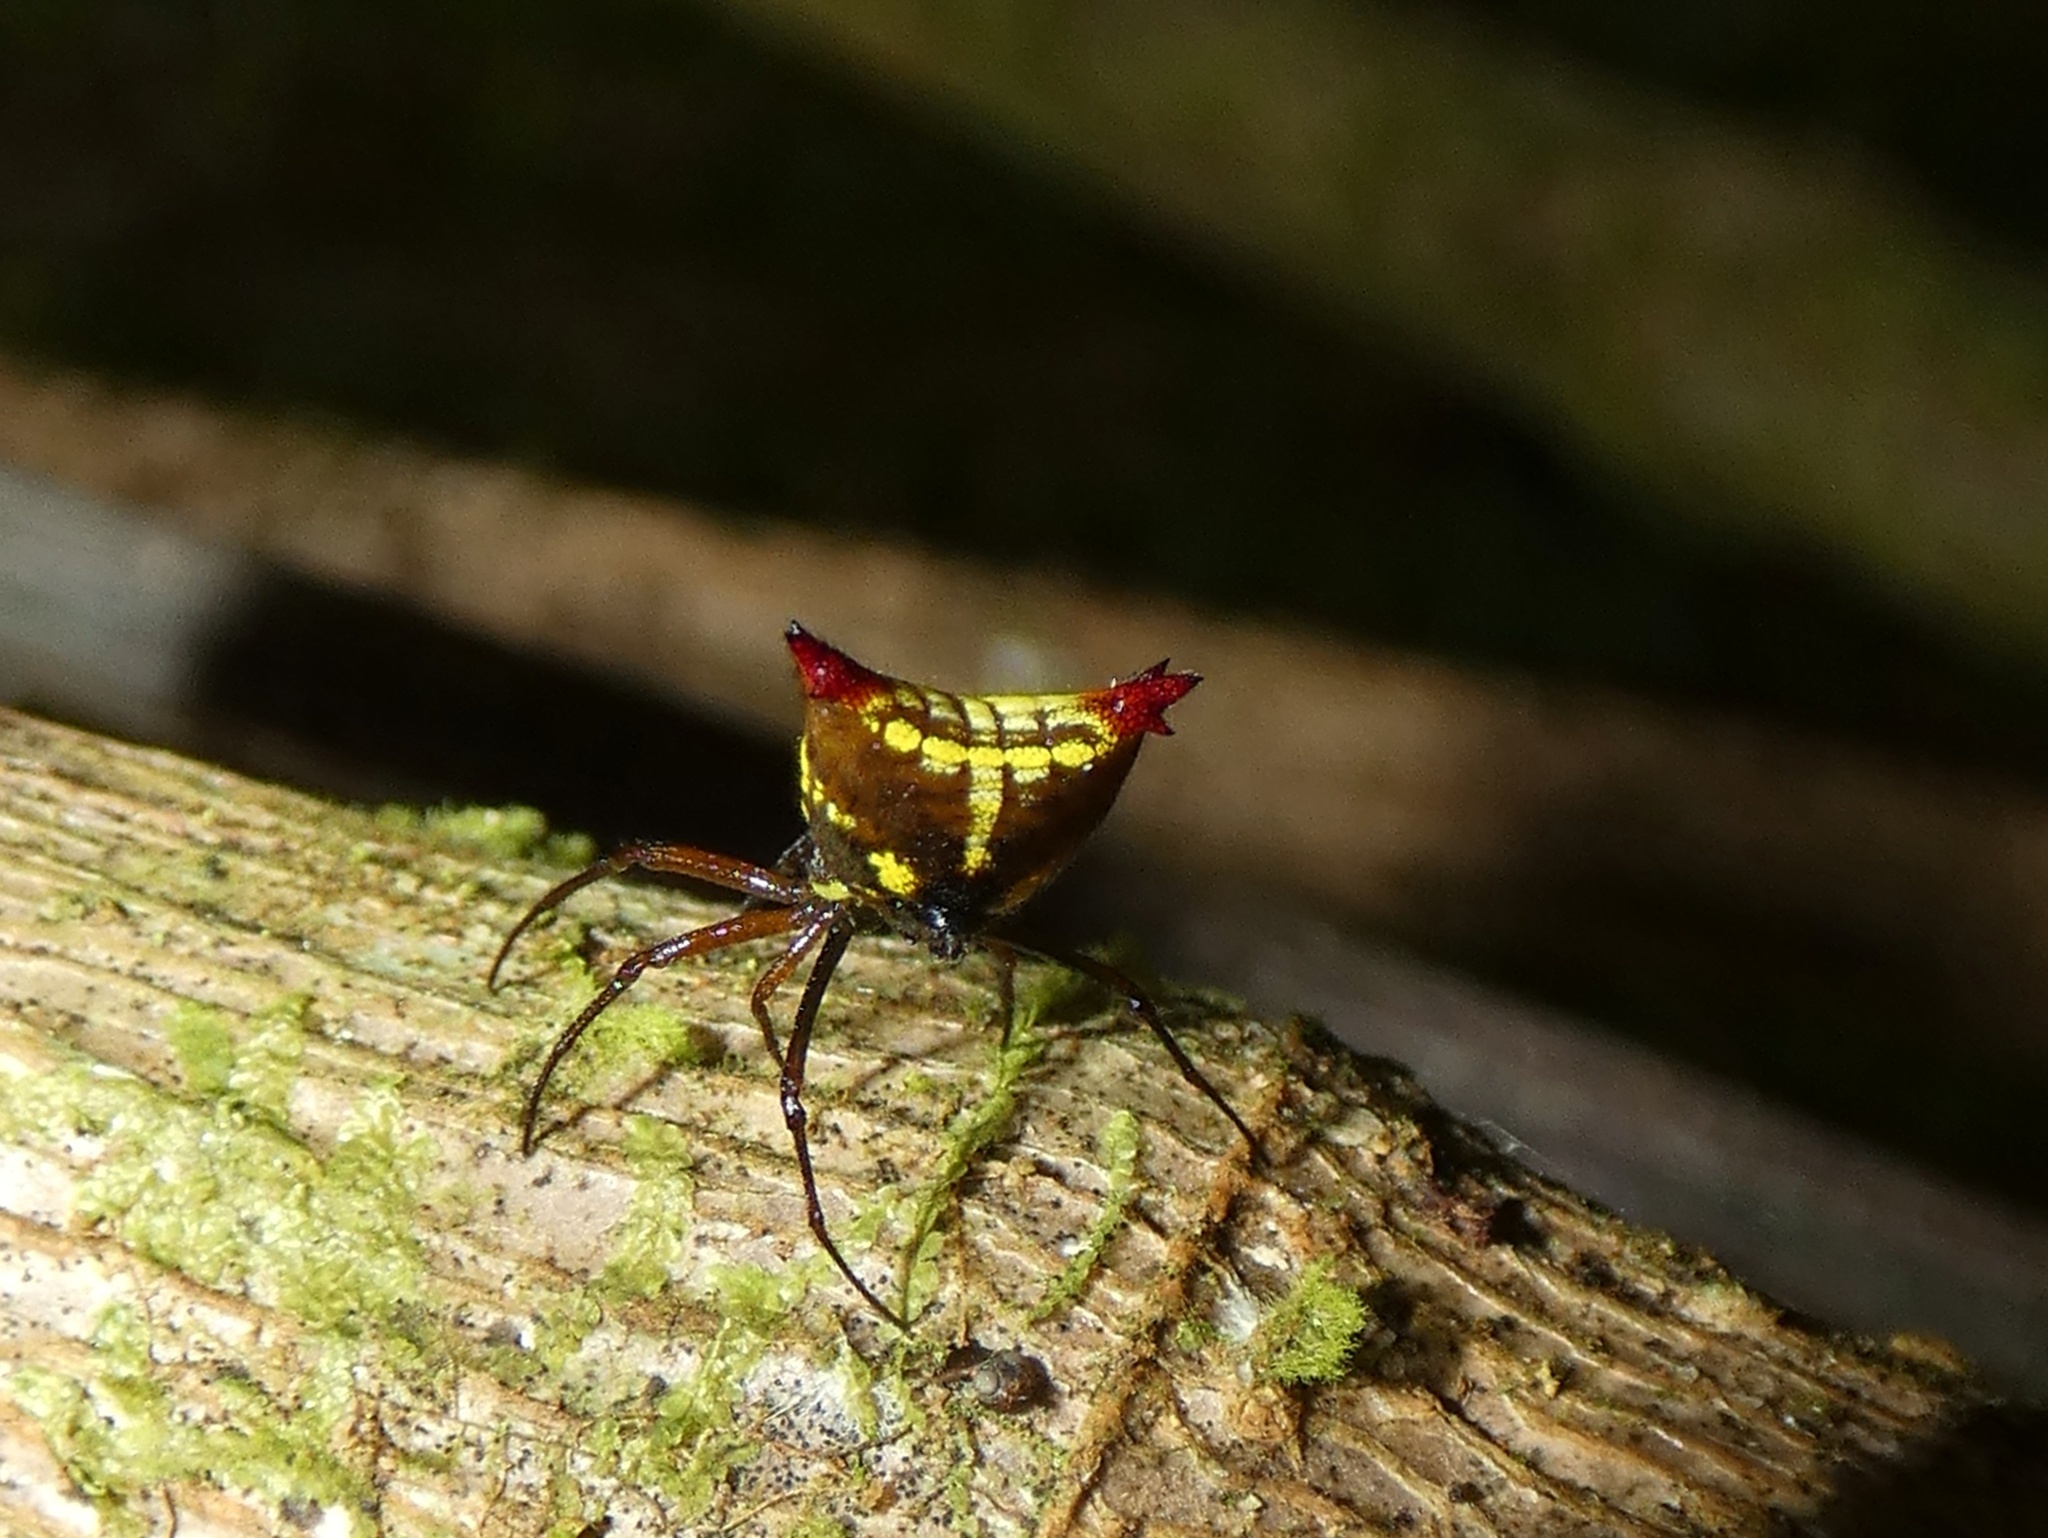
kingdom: Animalia
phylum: Arthropoda
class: Arachnida
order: Araneae
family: Araneidae
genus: Micrathena
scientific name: Micrathena duodecimspinosa
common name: Orb weavers
